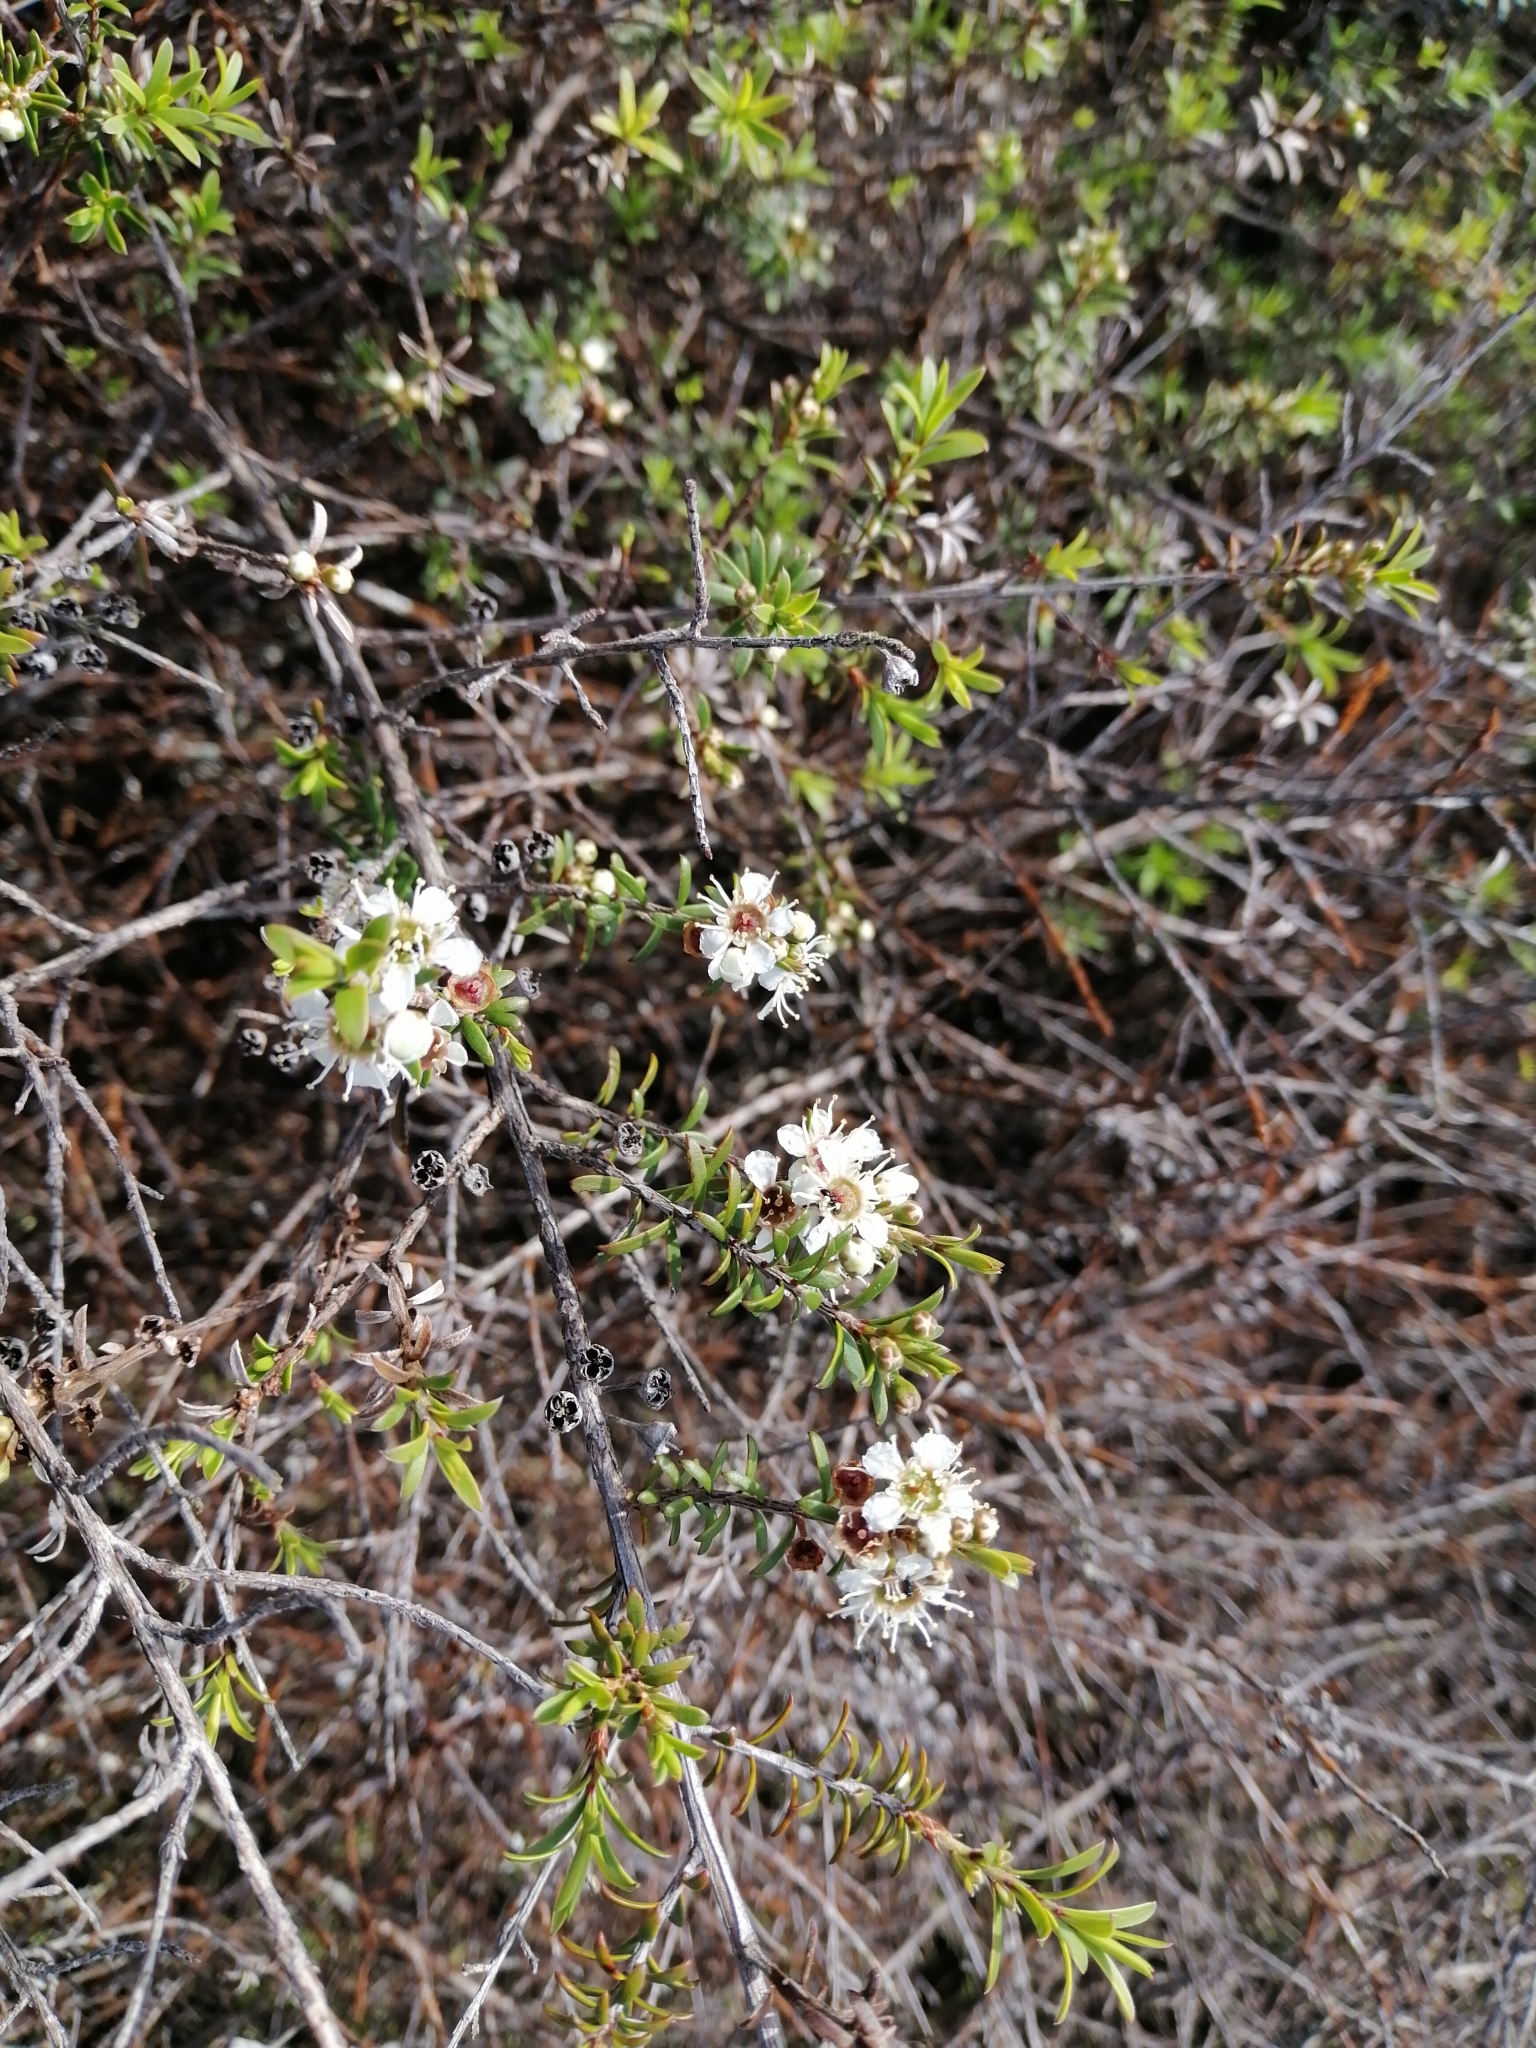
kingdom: Plantae
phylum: Tracheophyta
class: Magnoliopsida
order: Myrtales
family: Myrtaceae
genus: Kunzea
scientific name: Kunzea tenuicaulis
